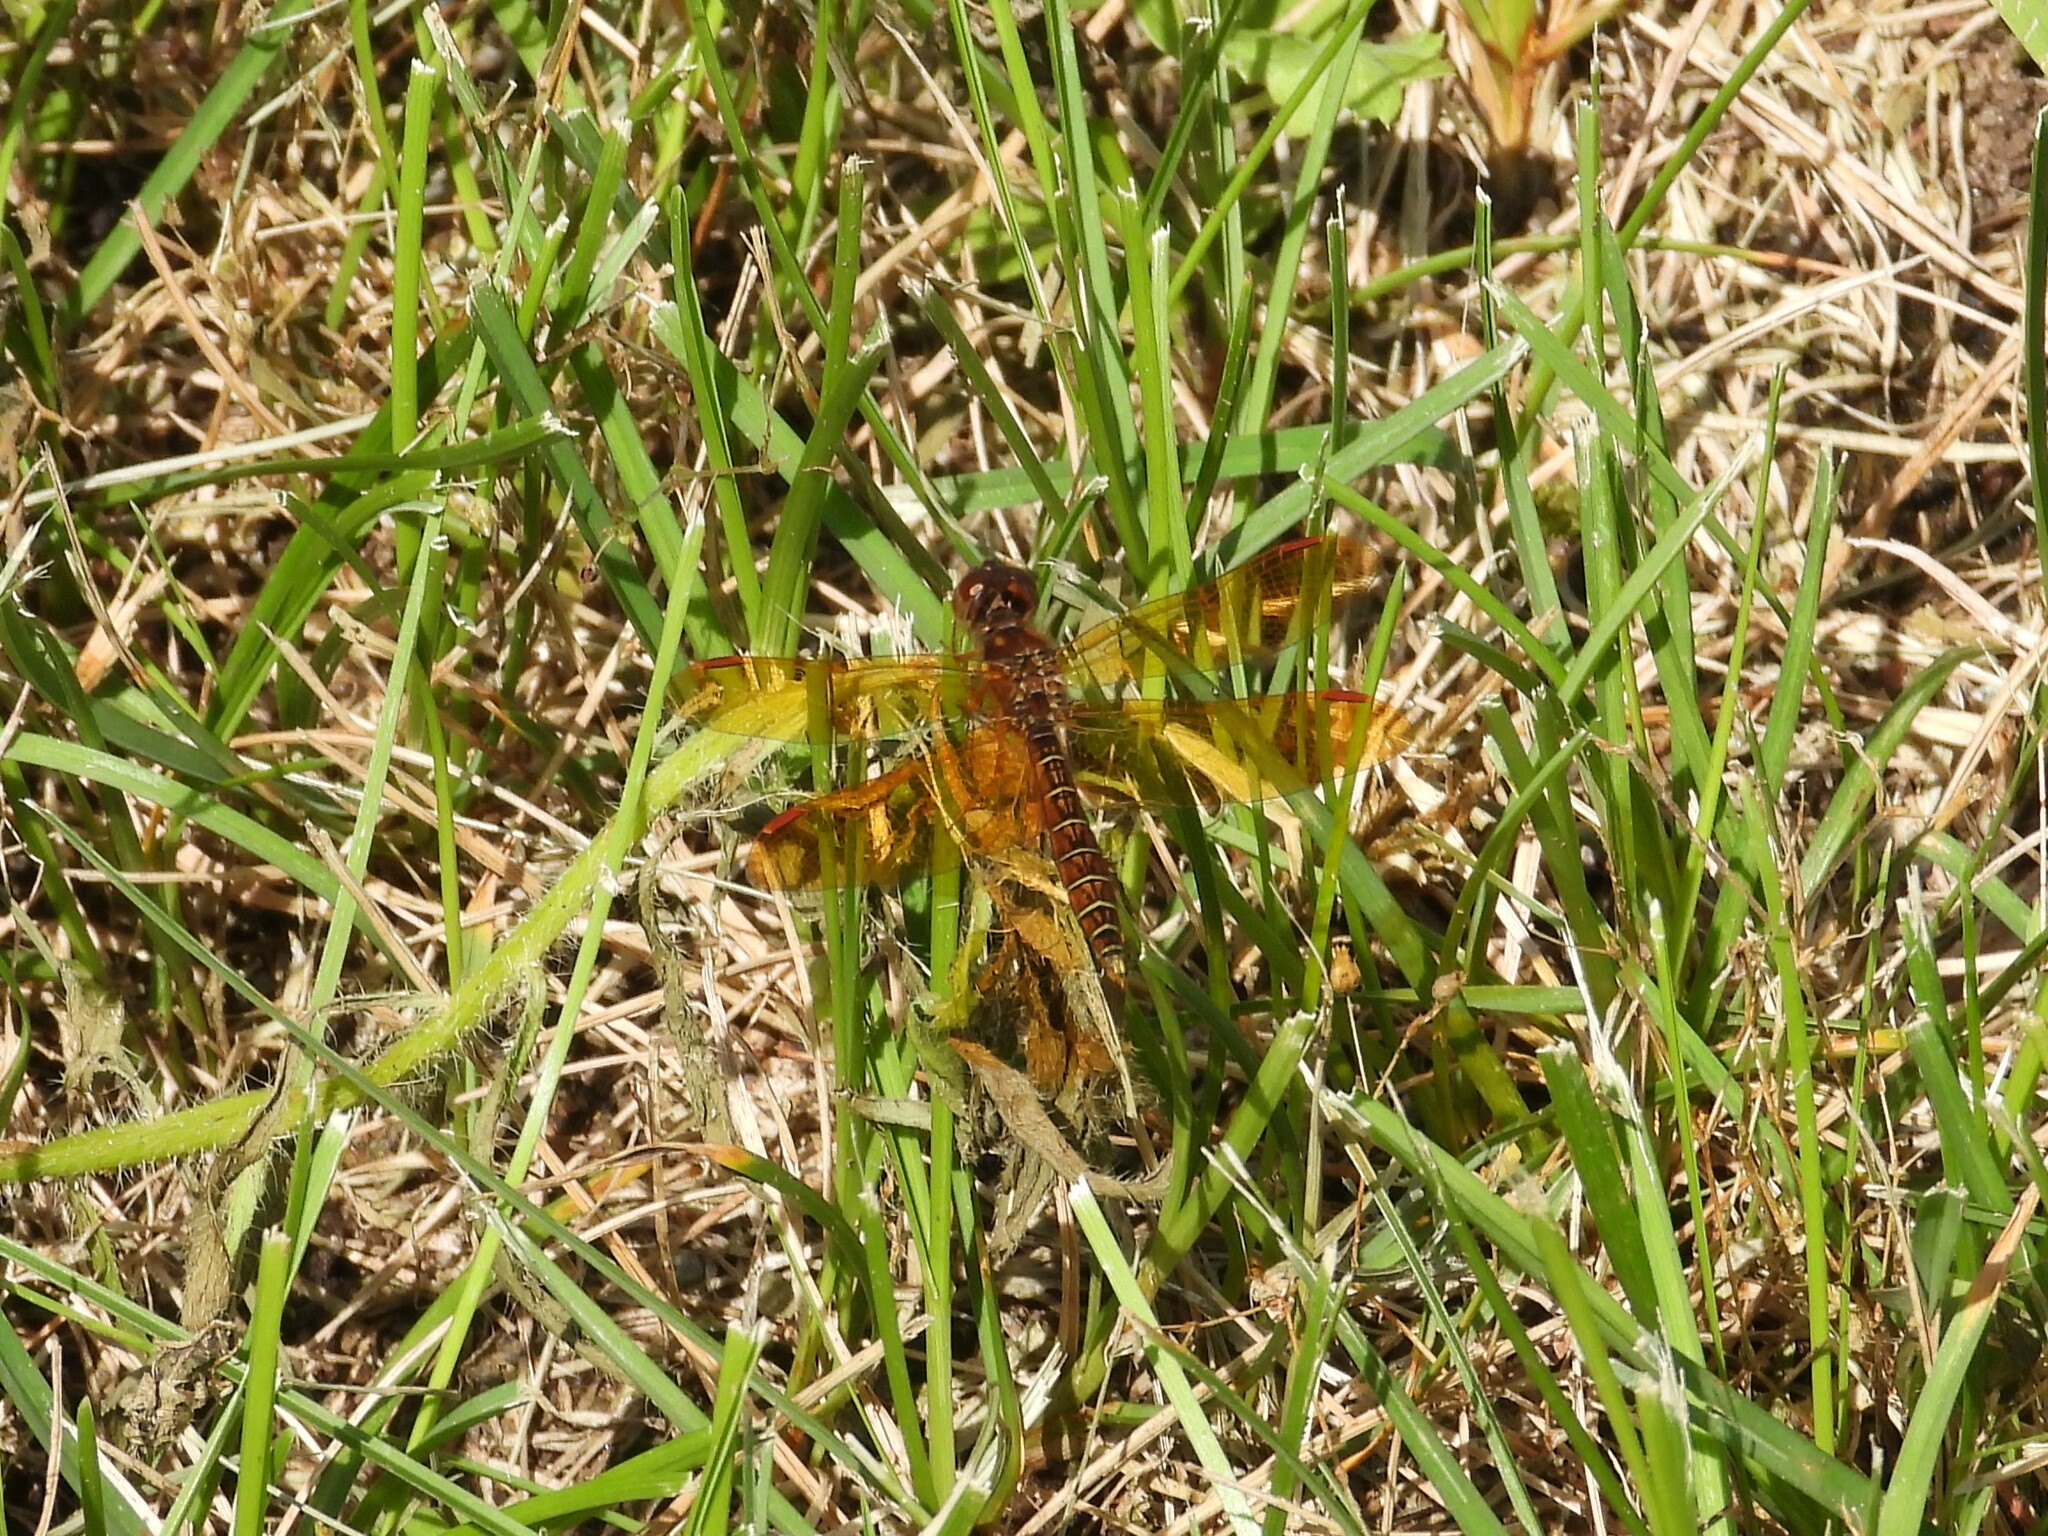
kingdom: Animalia
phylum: Arthropoda
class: Insecta
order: Odonata
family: Libellulidae
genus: Perithemis
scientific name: Perithemis tenera
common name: Eastern amberwing
